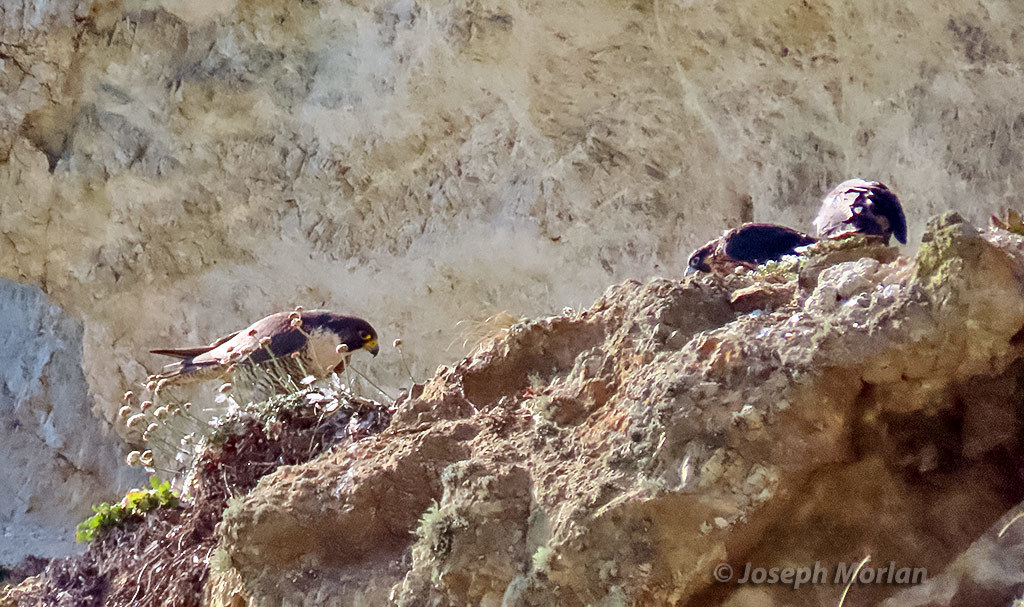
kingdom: Animalia
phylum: Chordata
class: Aves
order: Falconiformes
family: Falconidae
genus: Falco
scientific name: Falco peregrinus
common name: Peregrine falcon
